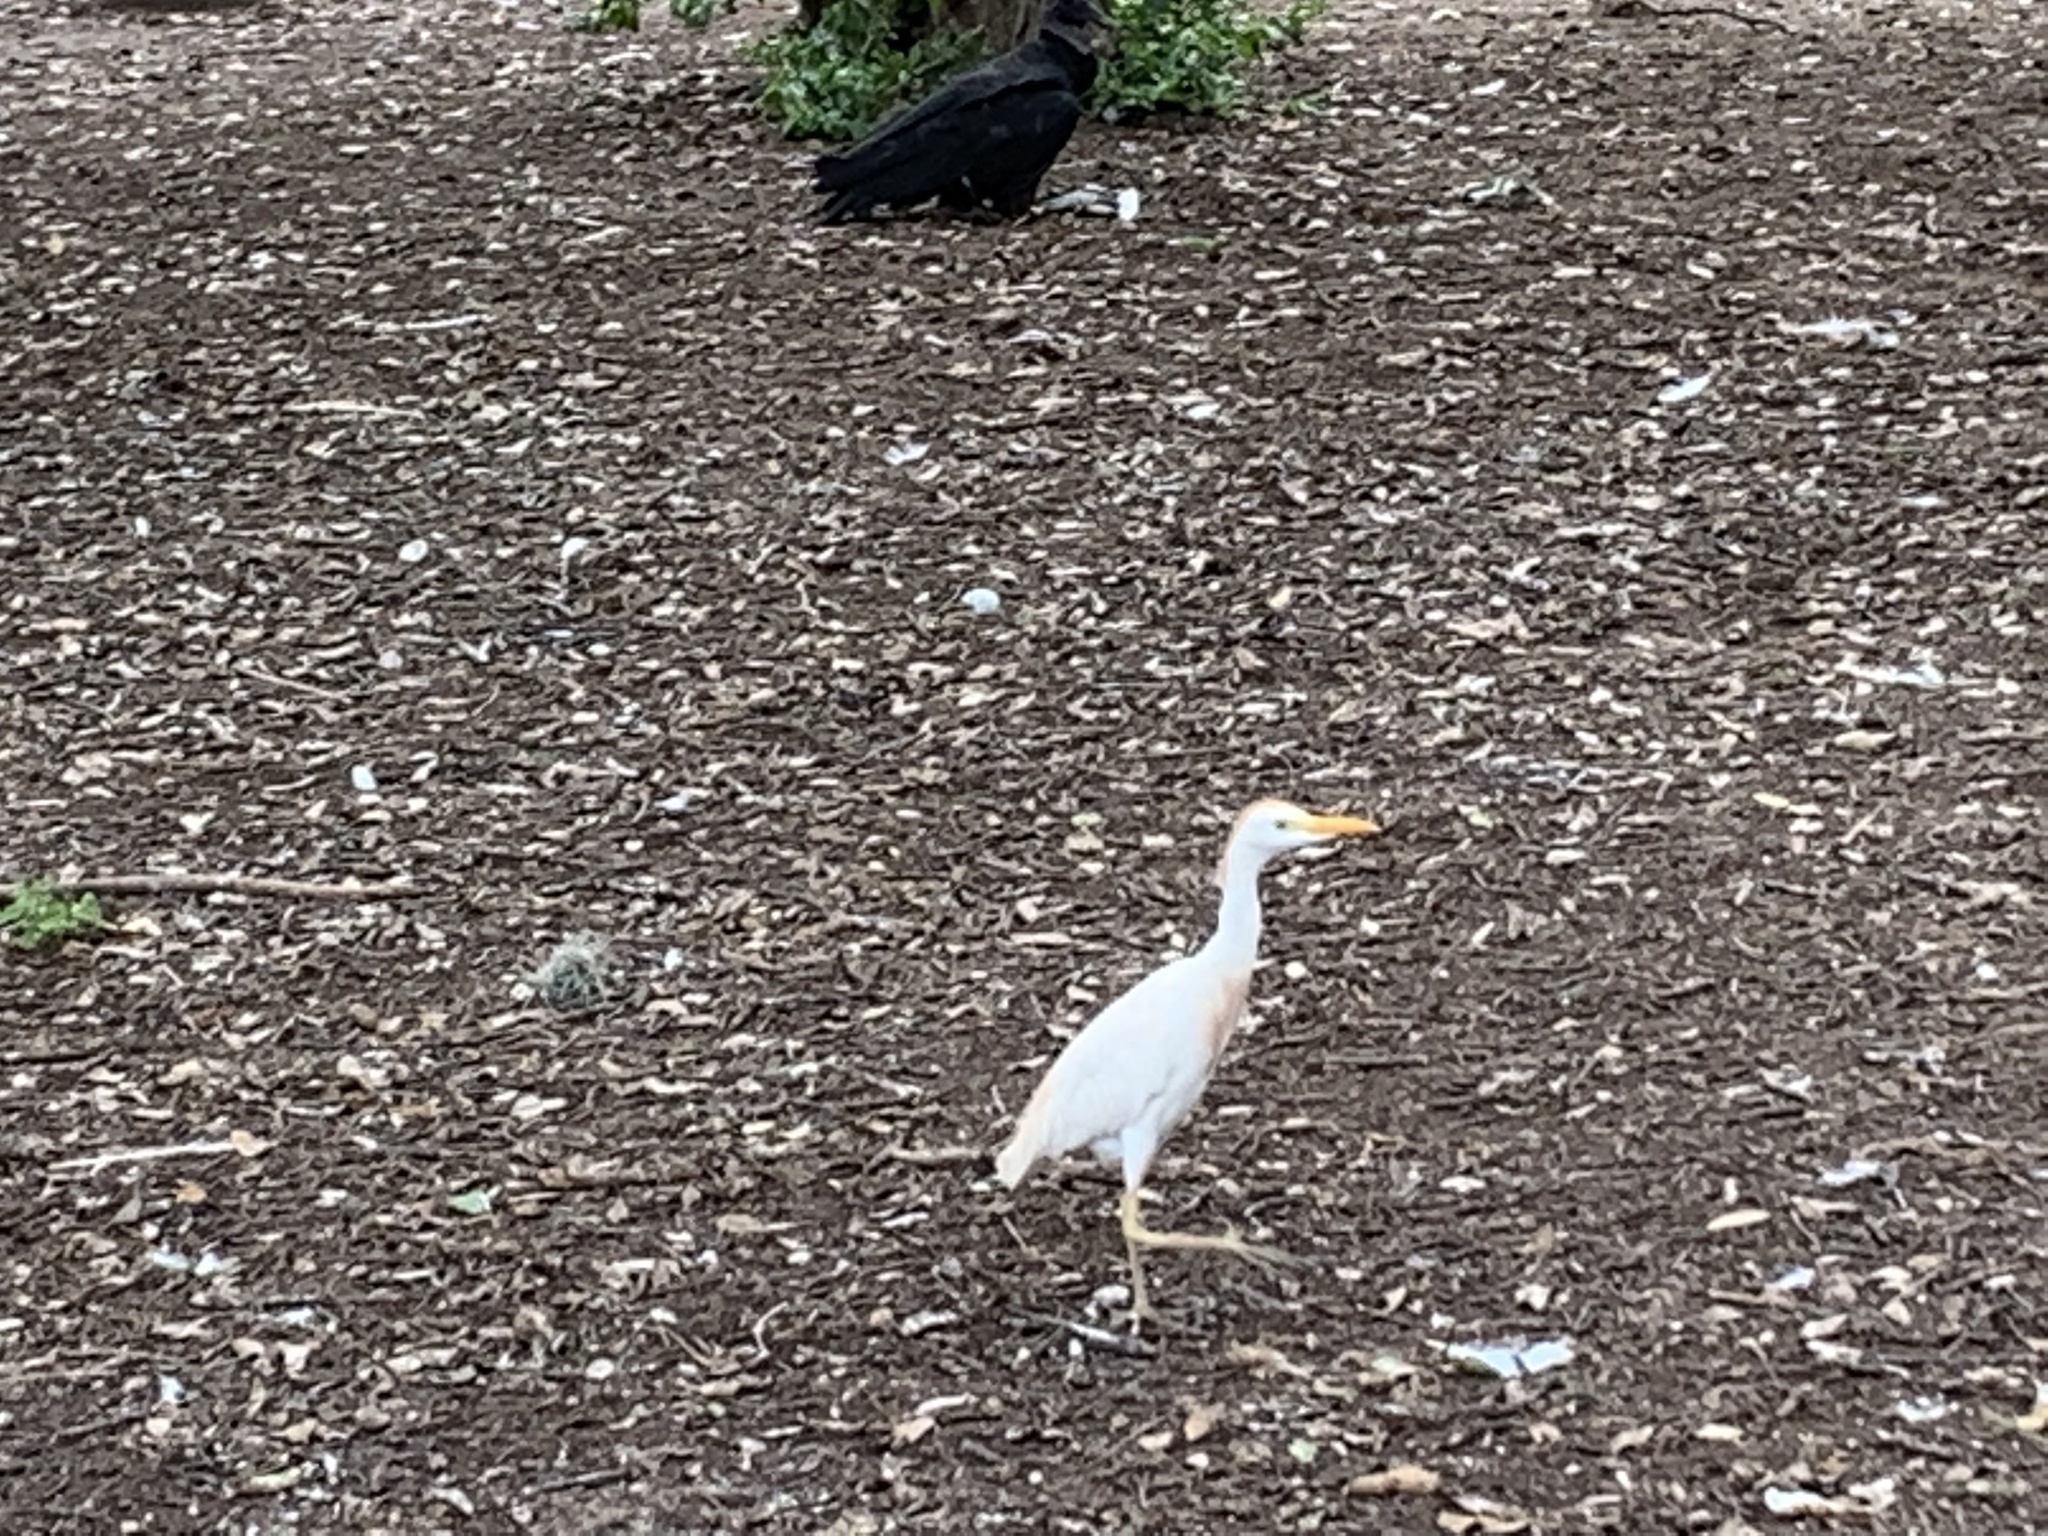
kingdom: Animalia
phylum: Chordata
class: Aves
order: Pelecaniformes
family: Ardeidae
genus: Bubulcus
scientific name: Bubulcus ibis
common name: Cattle egret
